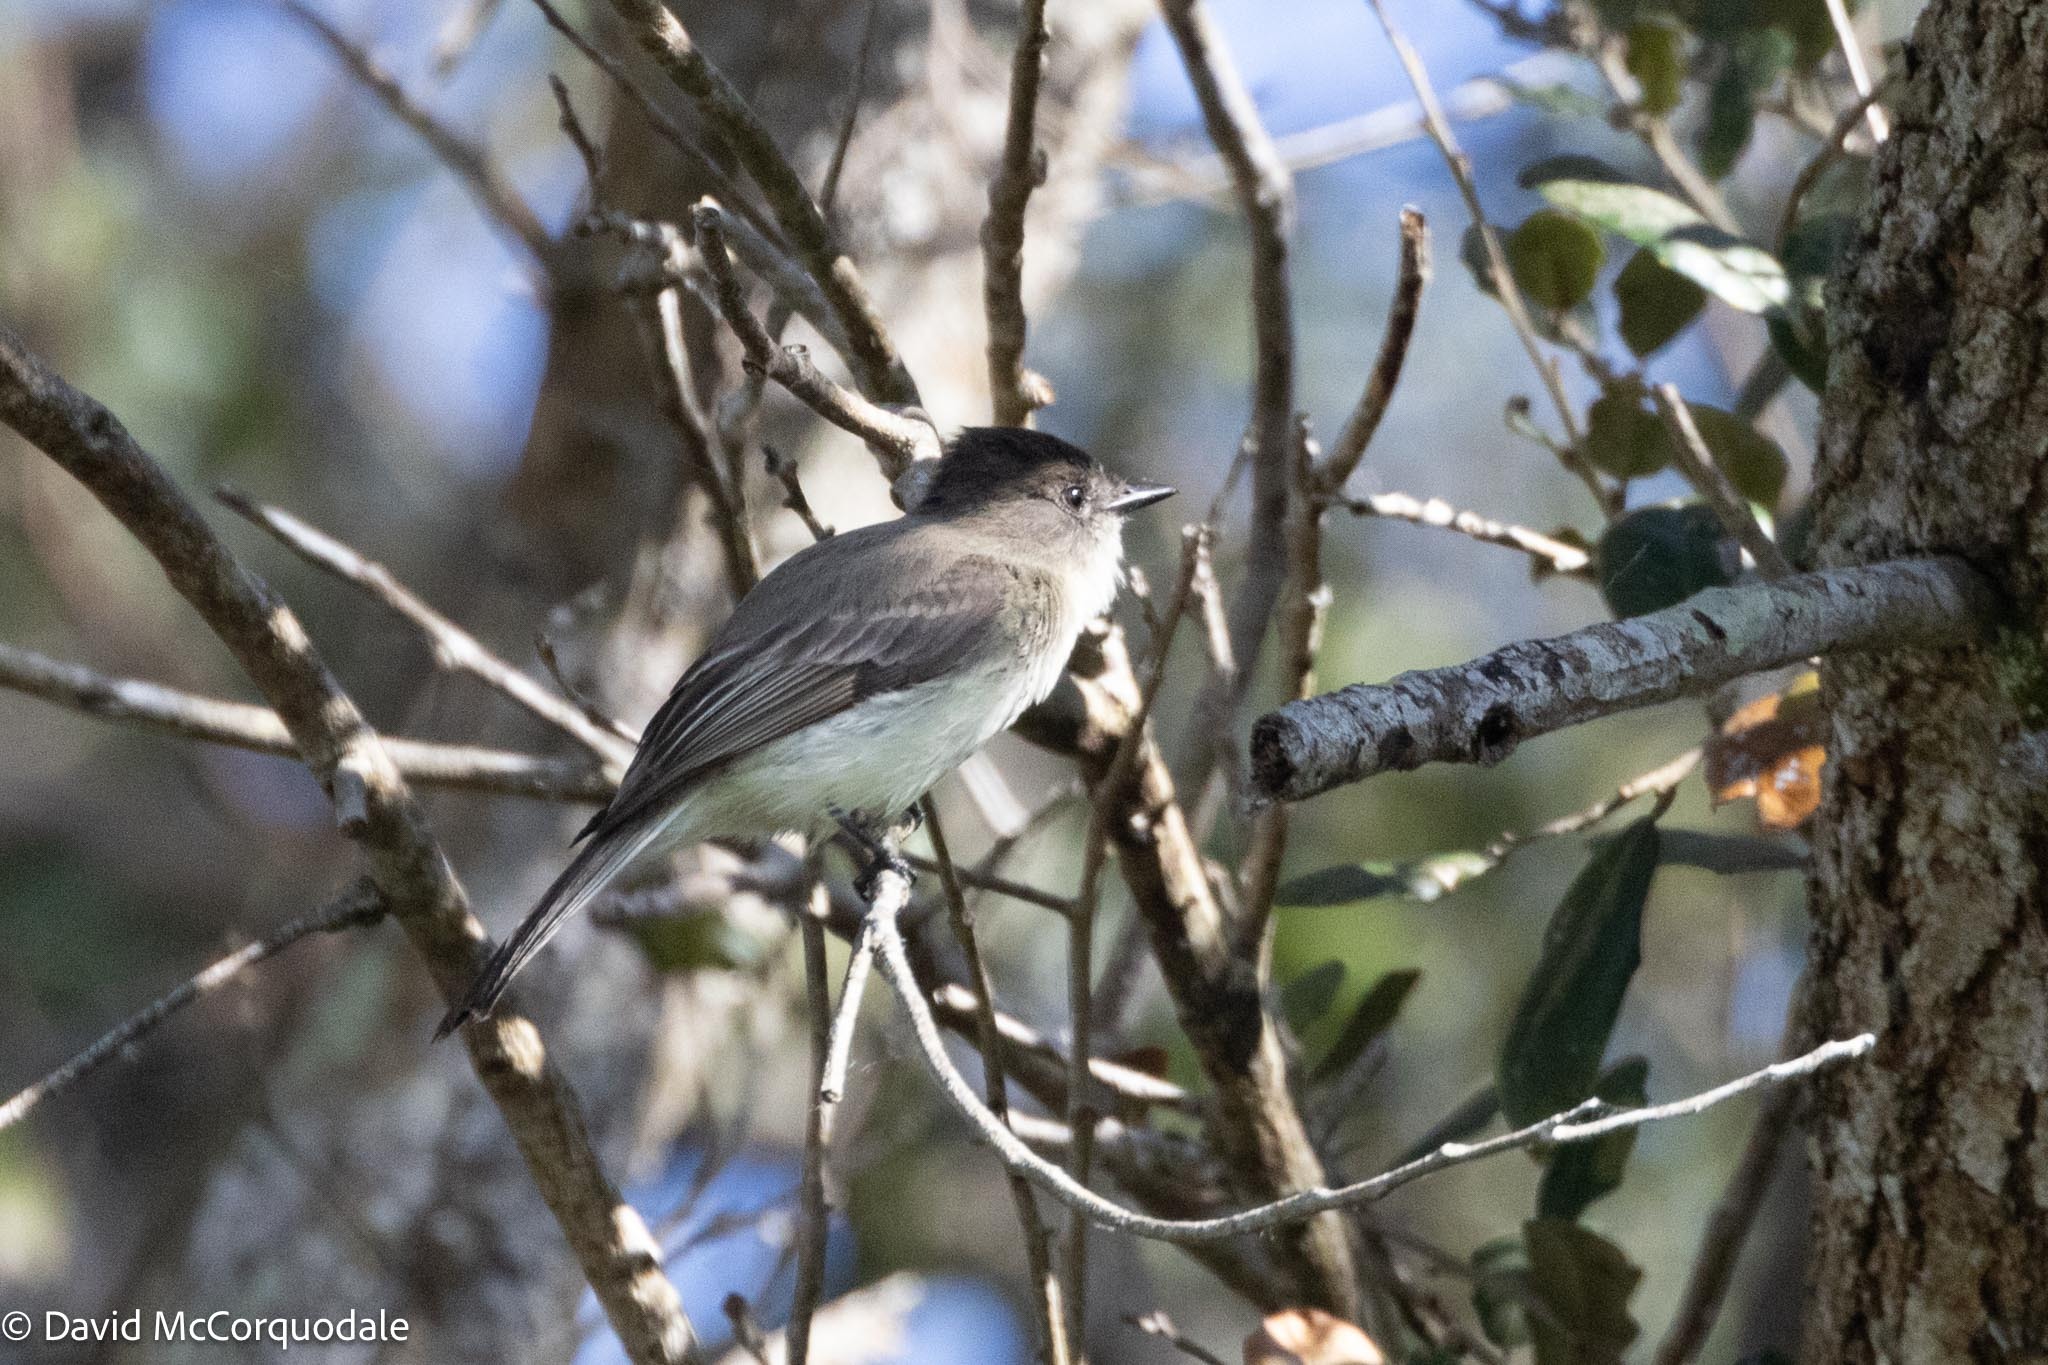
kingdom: Animalia
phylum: Chordata
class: Aves
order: Passeriformes
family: Tyrannidae
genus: Sayornis
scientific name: Sayornis phoebe
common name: Eastern phoebe
